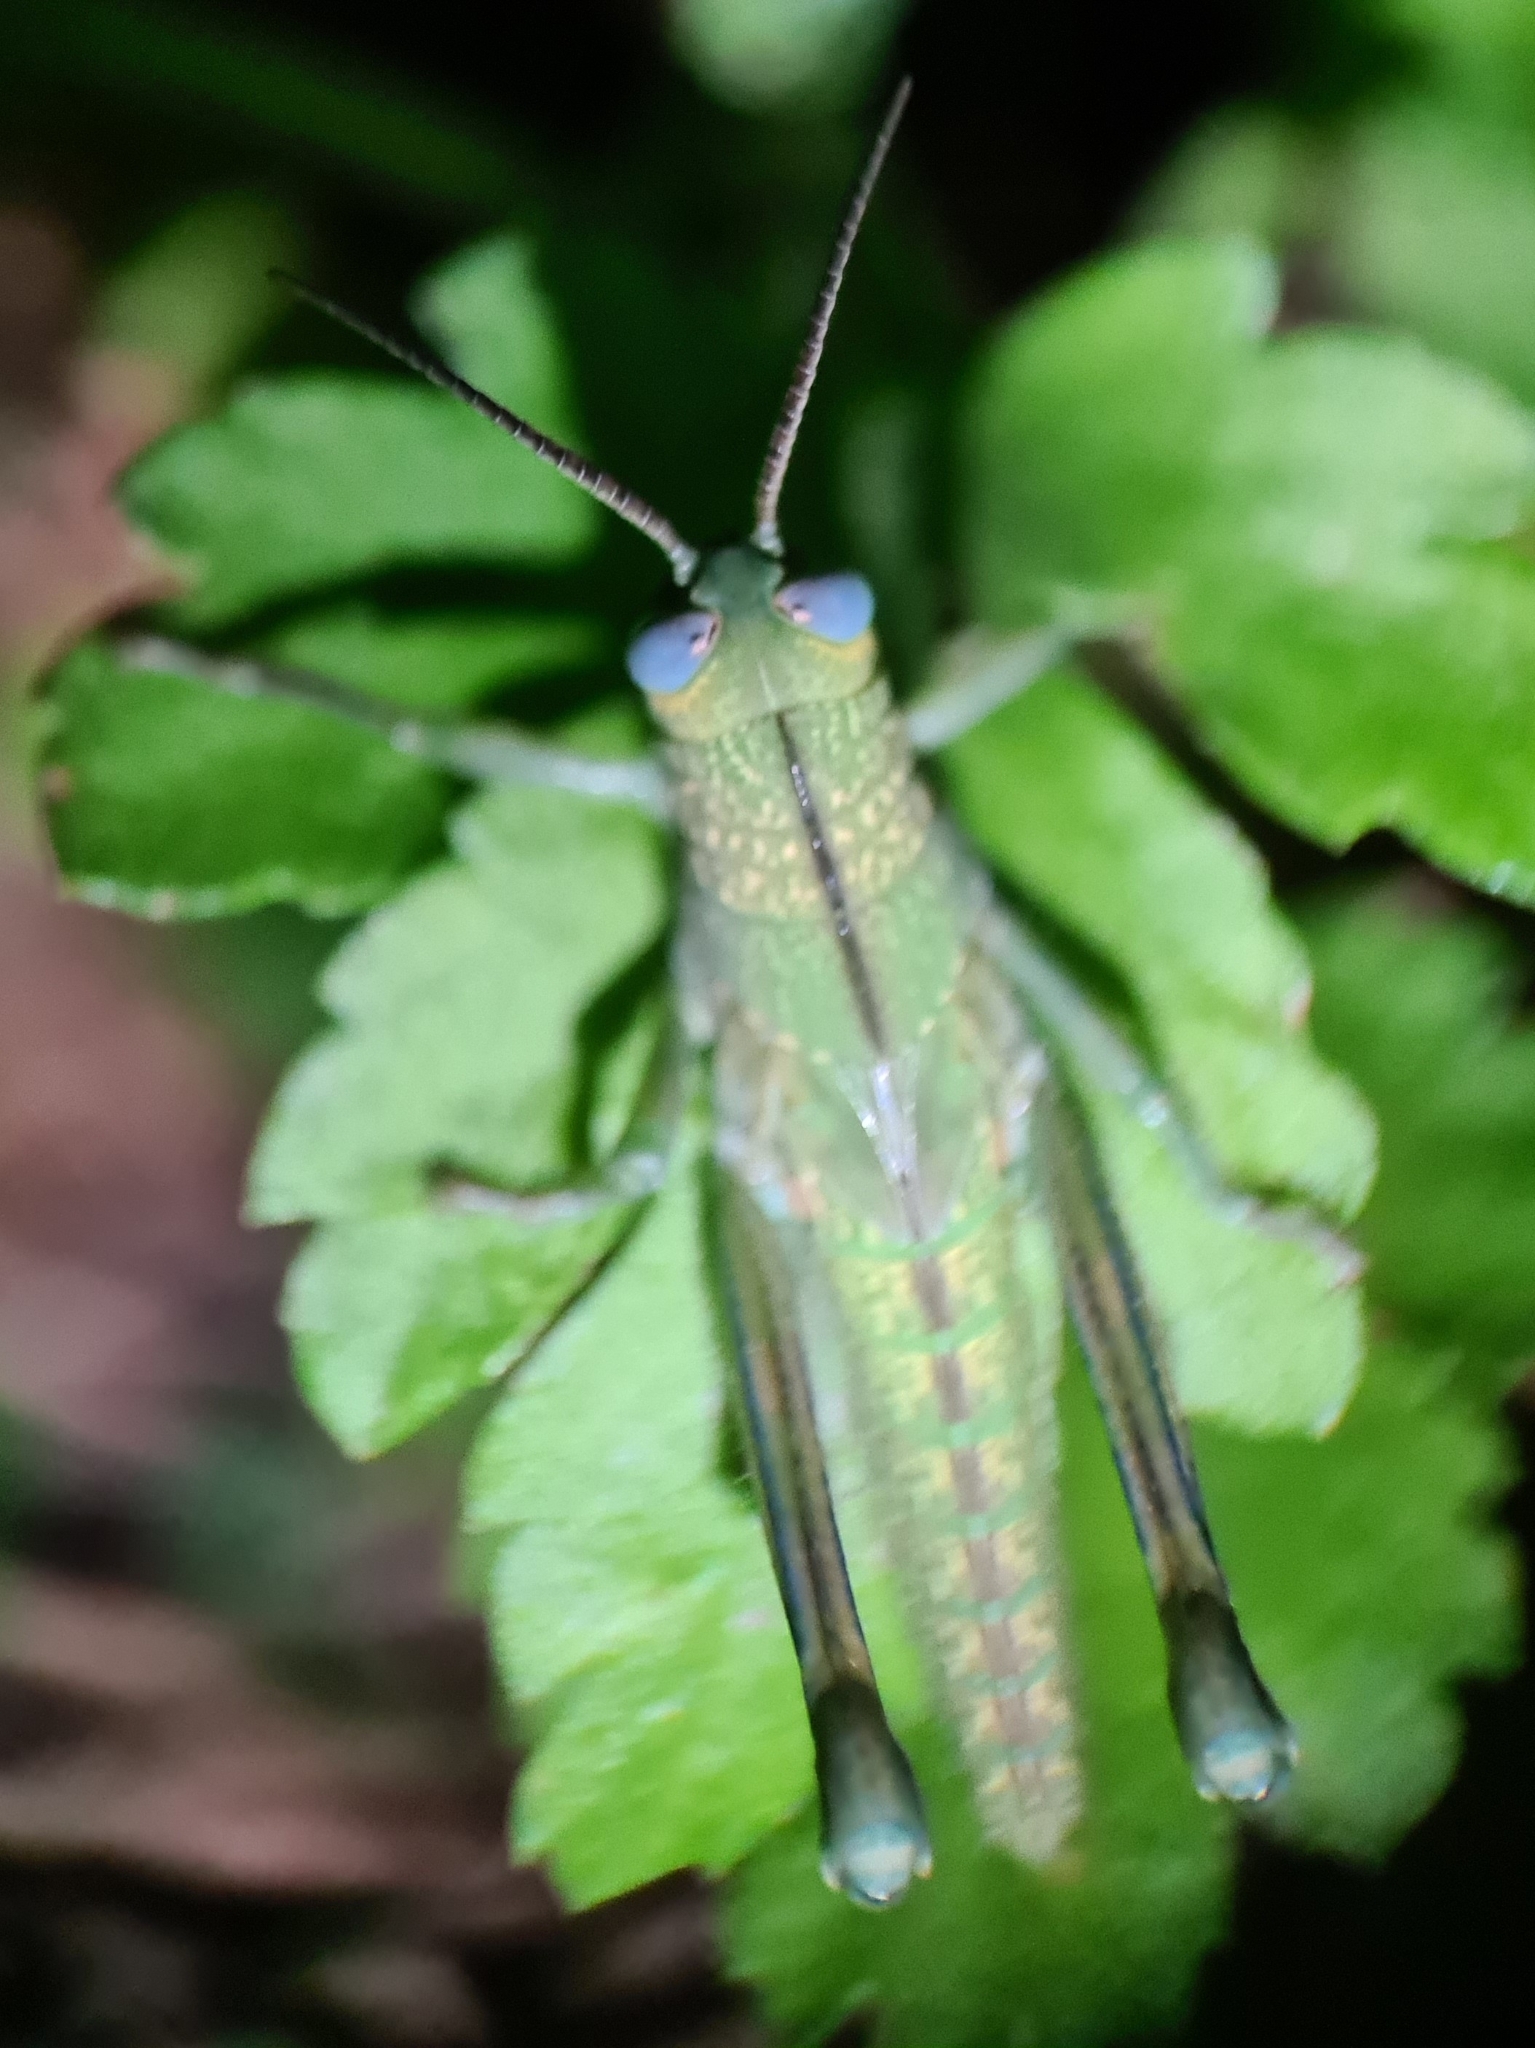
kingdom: Animalia
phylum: Arthropoda
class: Insecta
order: Orthoptera
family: Acrididae
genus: Valanga
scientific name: Valanga irregularis
